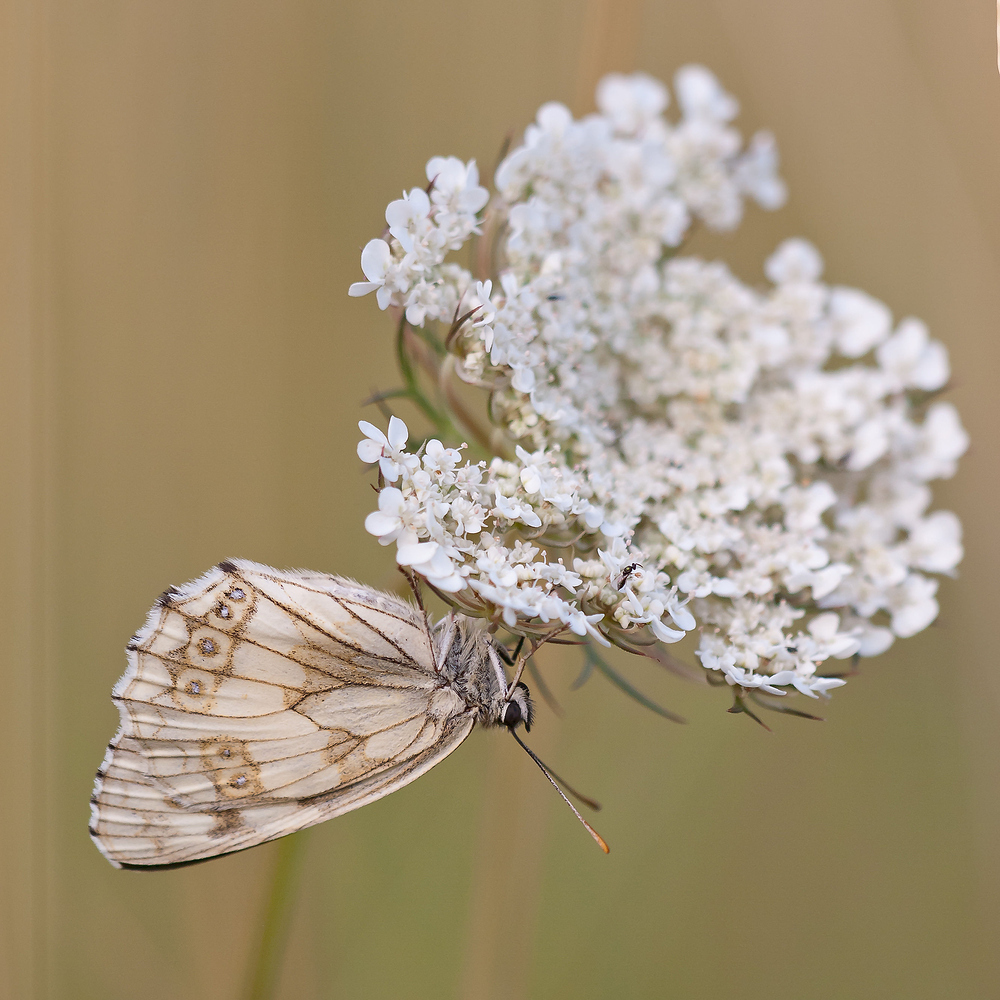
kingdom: Animalia
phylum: Arthropoda
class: Insecta
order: Lepidoptera
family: Nymphalidae
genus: Melanargia
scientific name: Melanargia galathea
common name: Marbled white
